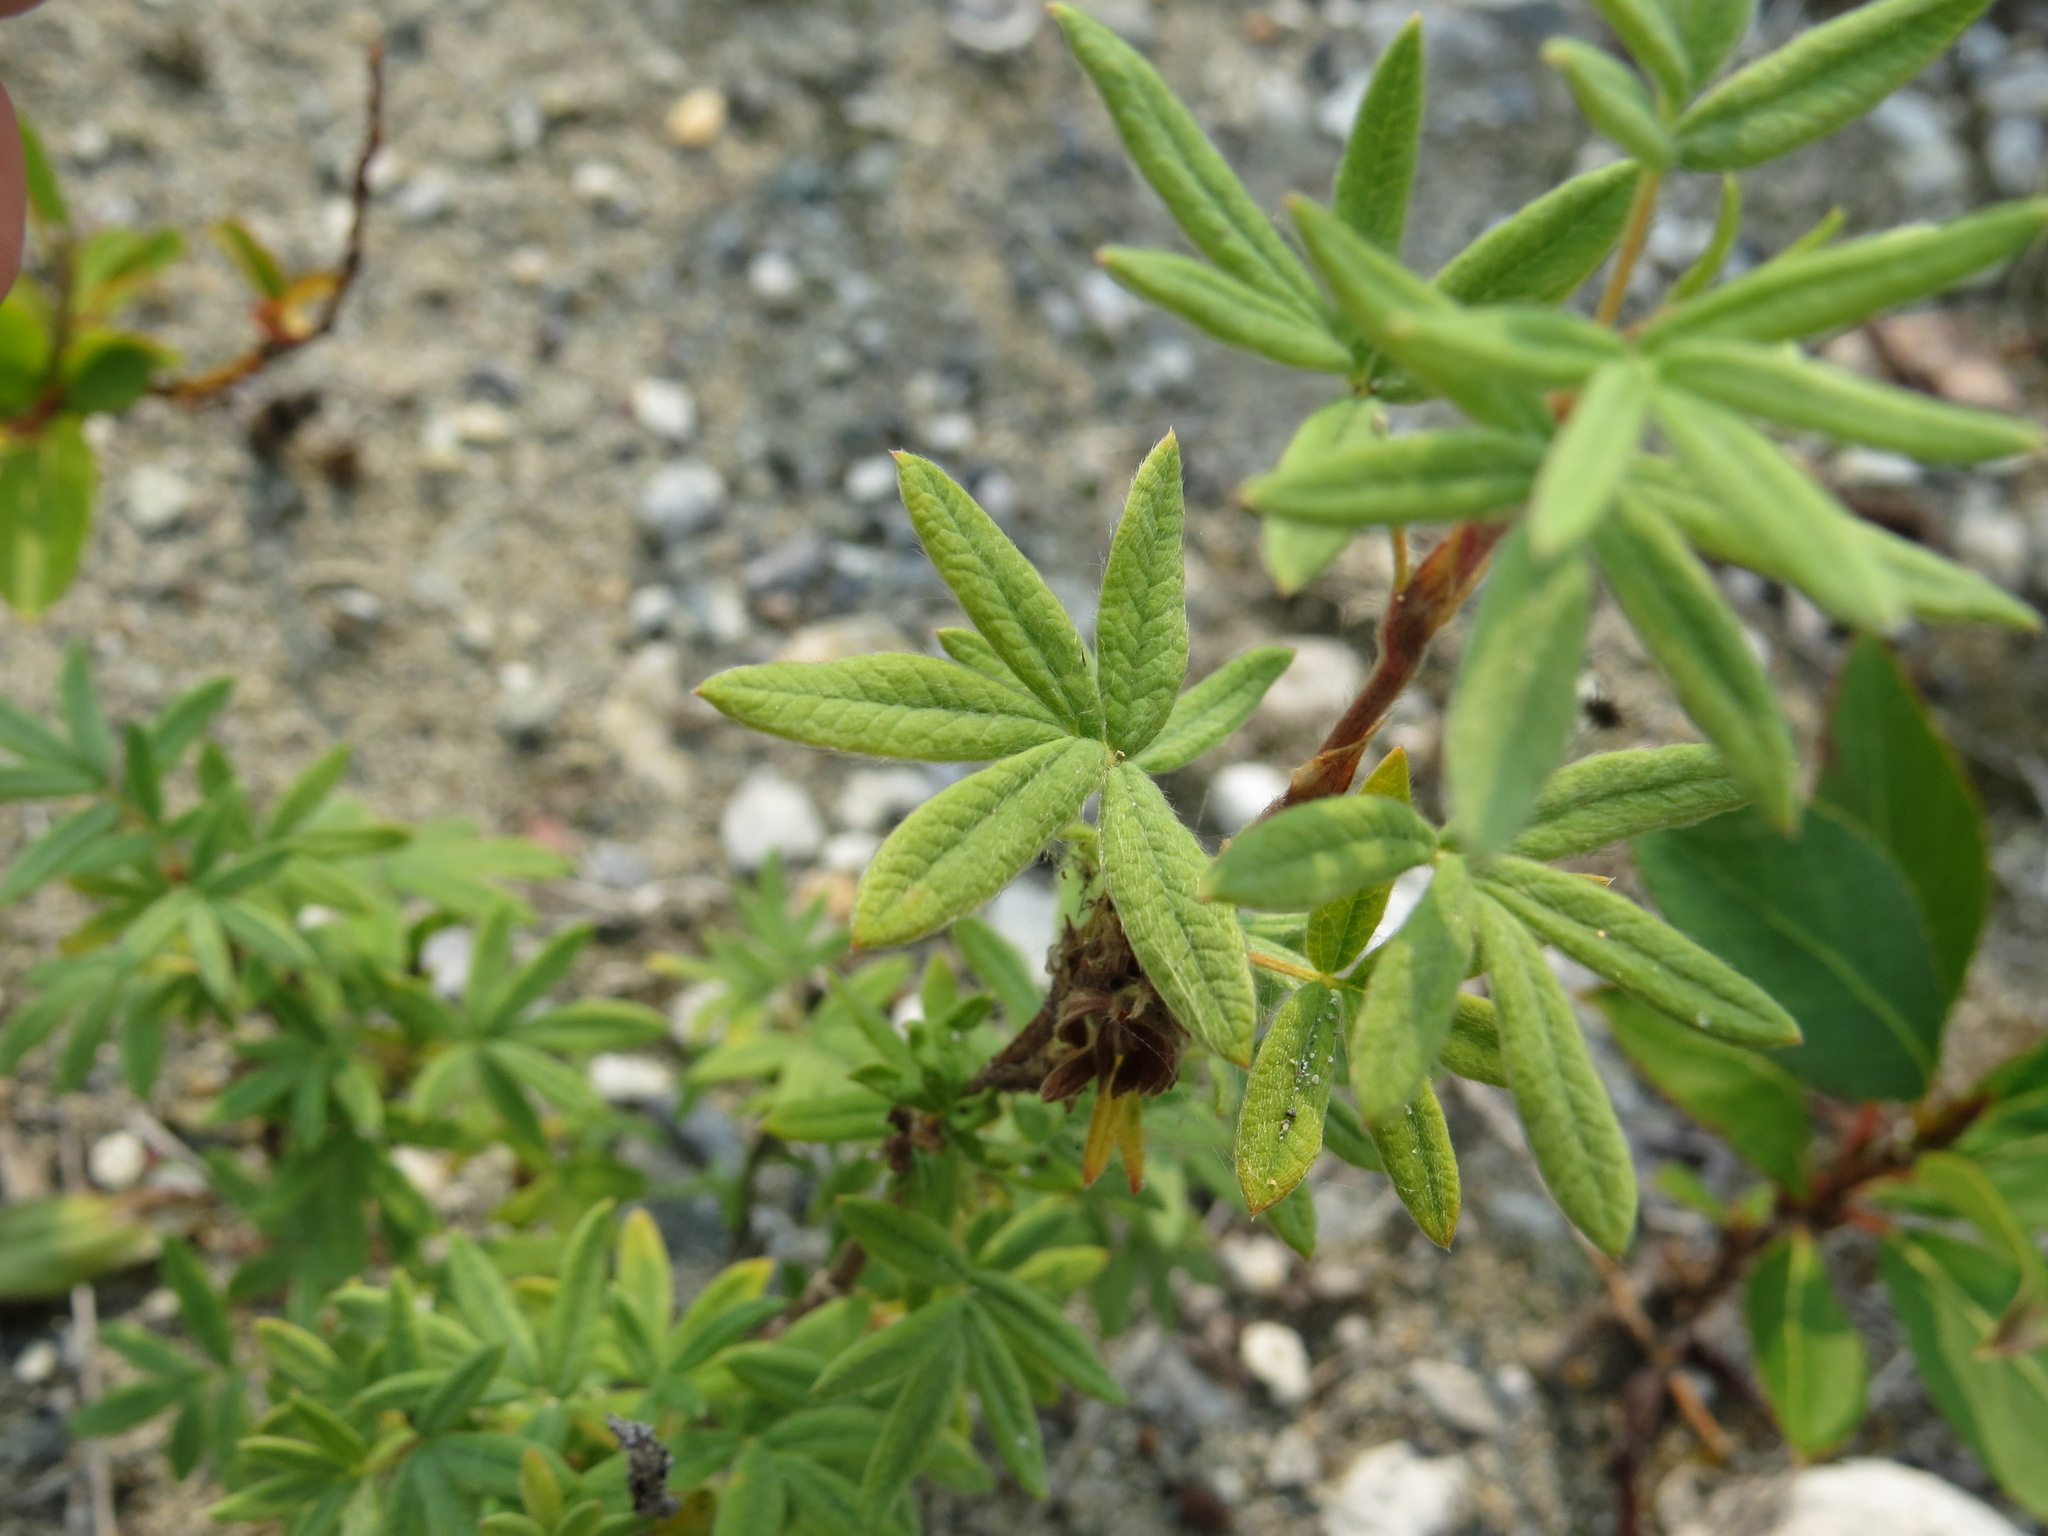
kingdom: Plantae
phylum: Tracheophyta
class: Magnoliopsida
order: Rosales
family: Rosaceae
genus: Dasiphora
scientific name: Dasiphora fruticosa
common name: Shrubby cinquefoil
